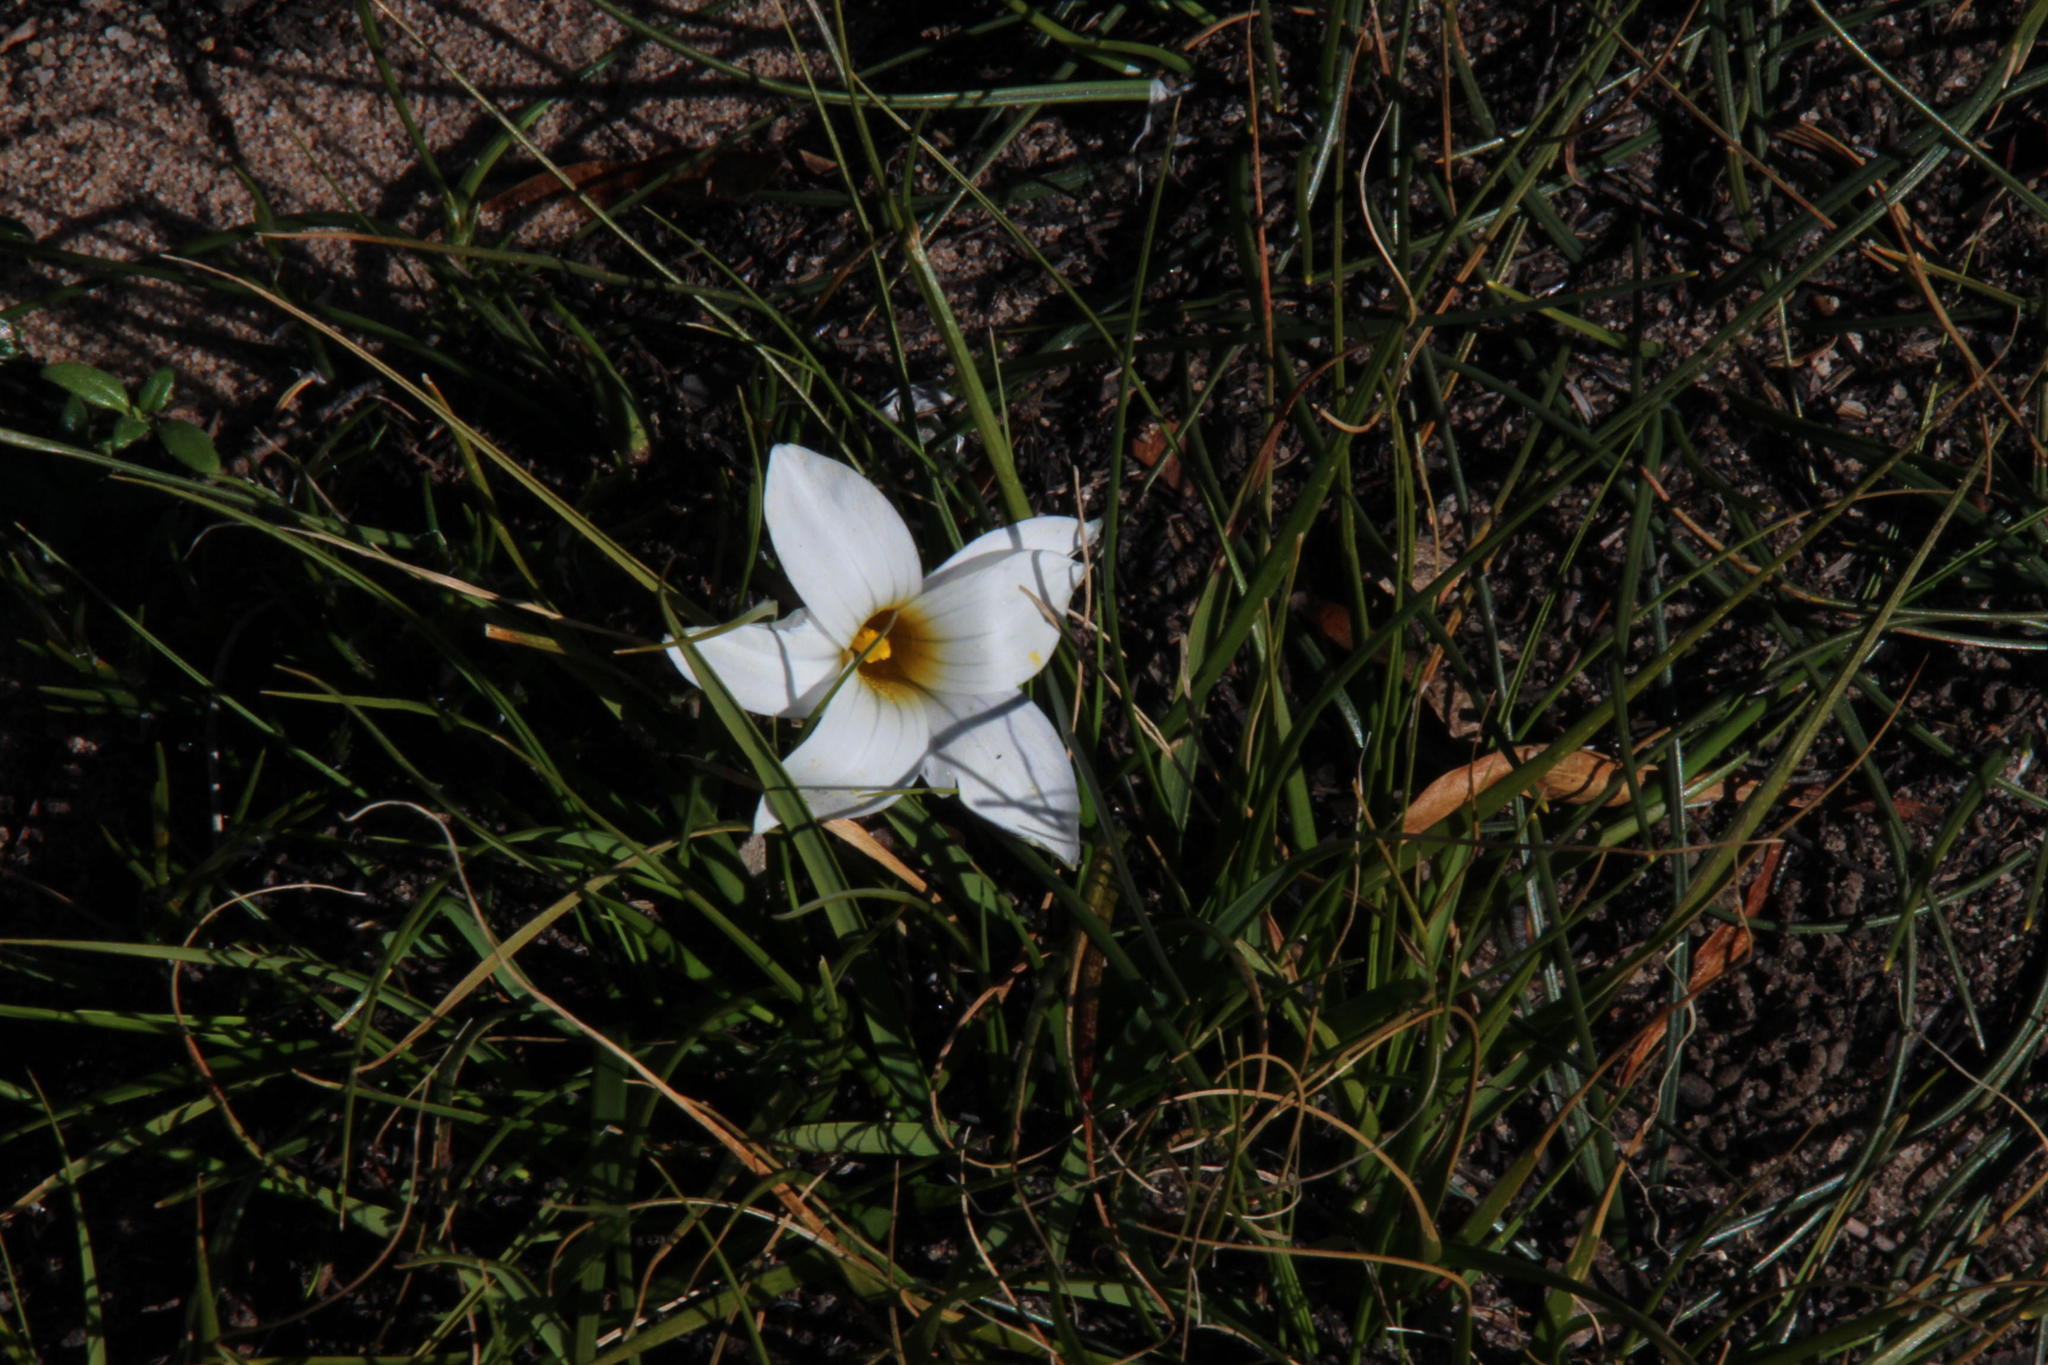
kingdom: Plantae
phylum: Tracheophyta
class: Liliopsida
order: Asparagales
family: Iridaceae
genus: Romulea
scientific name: Romulea flava
